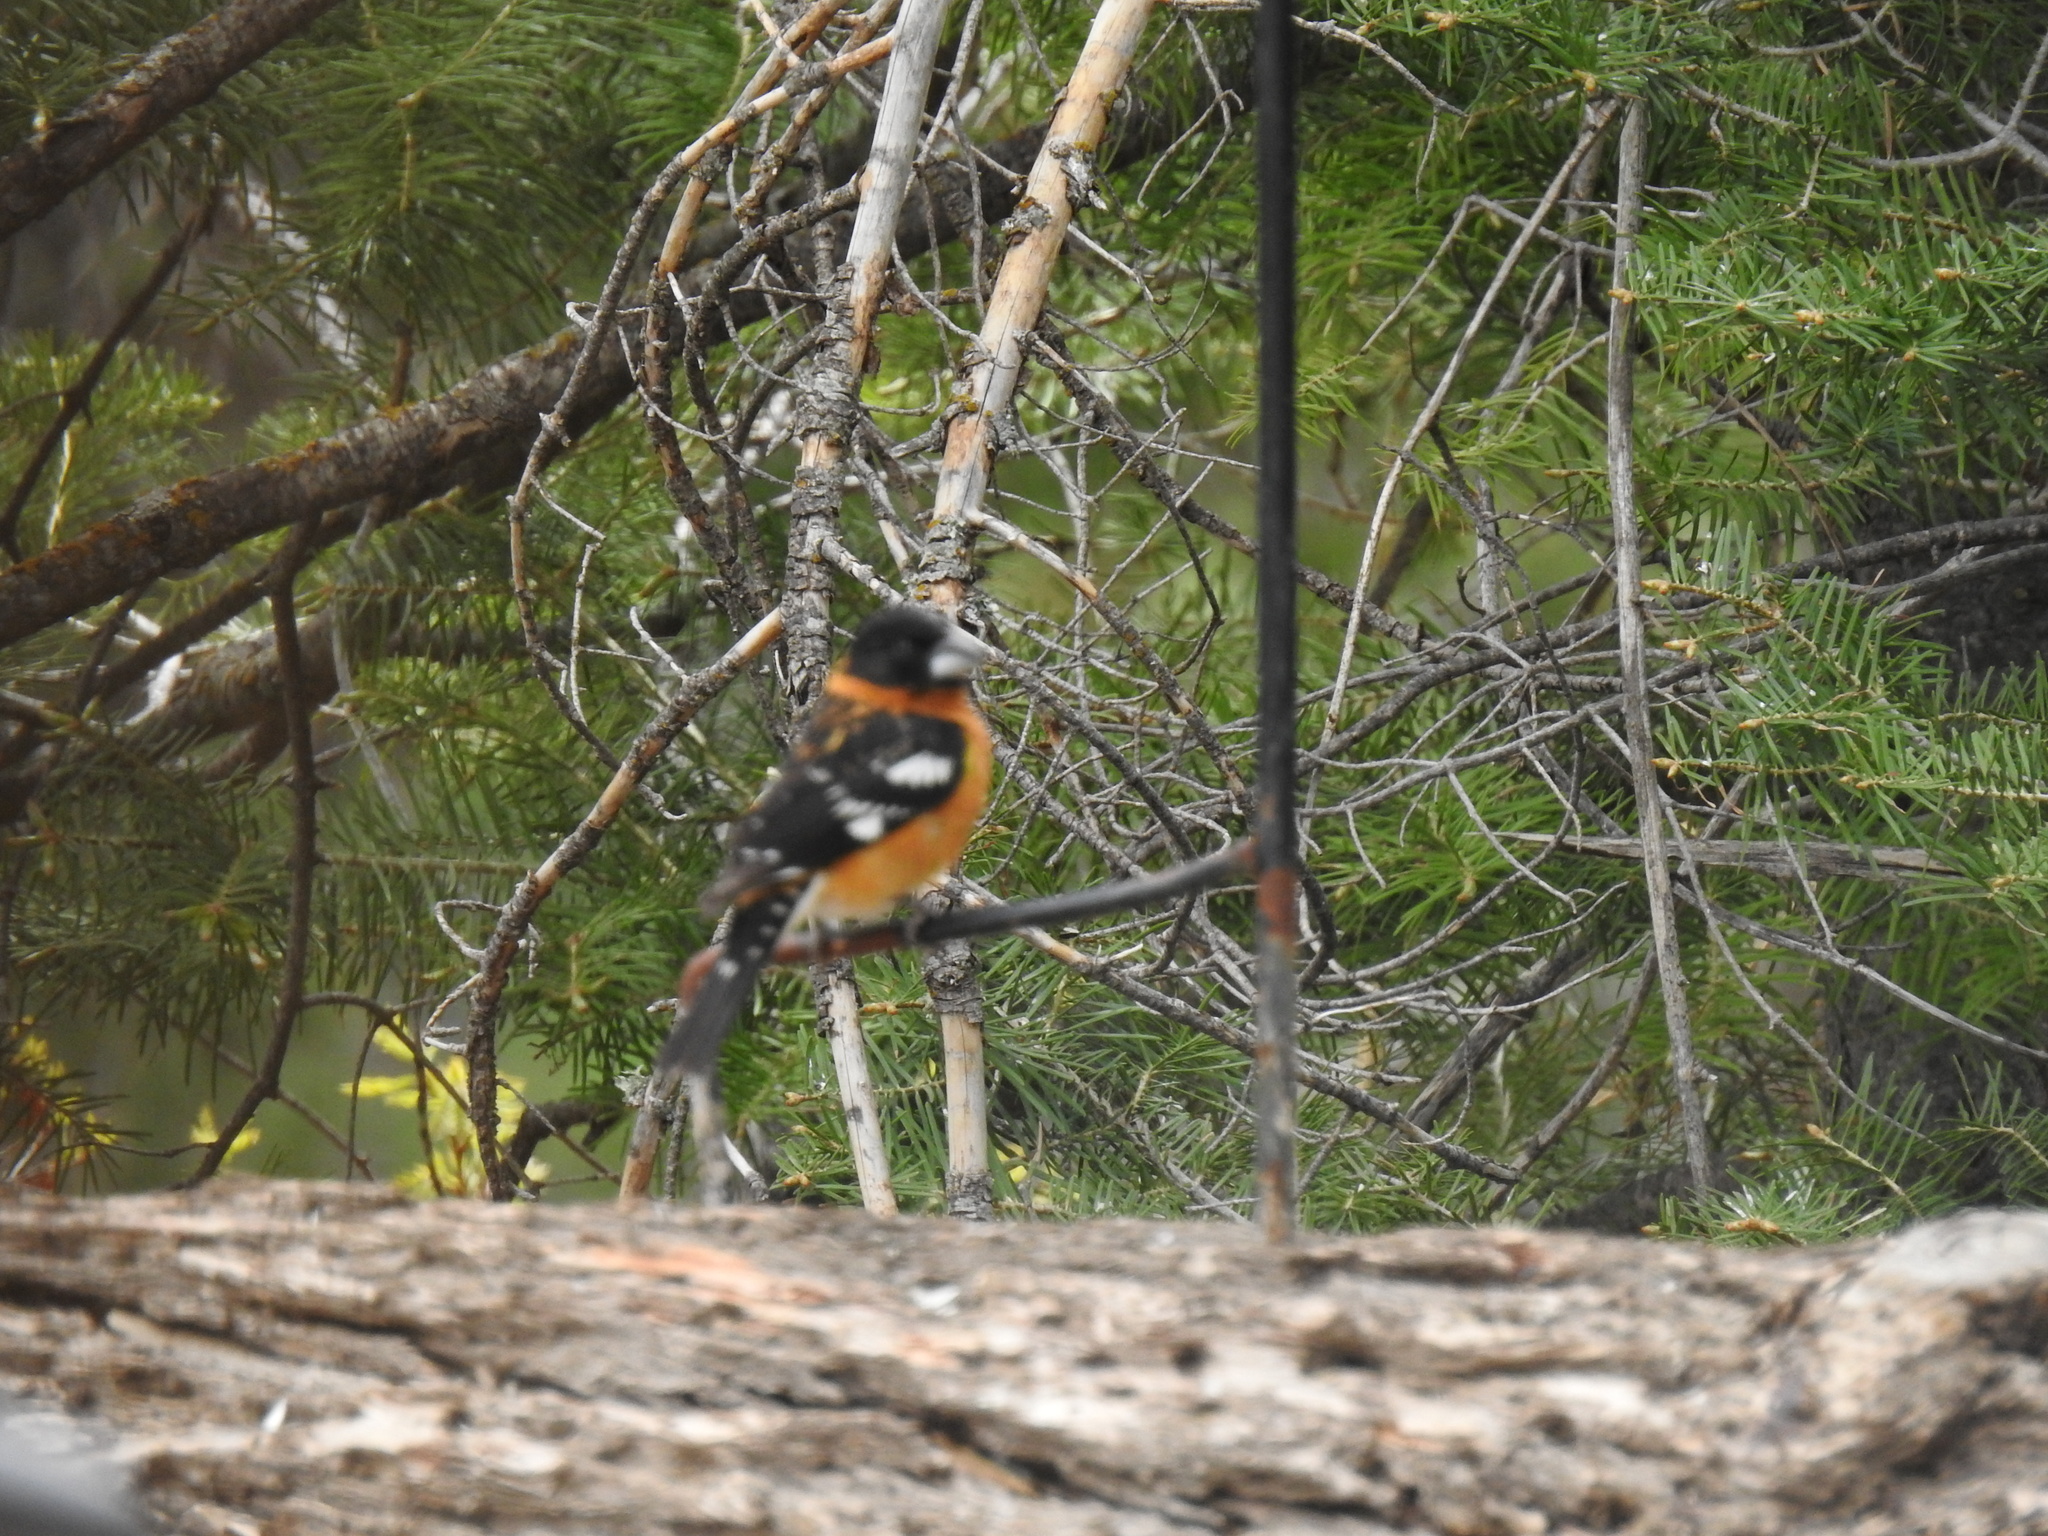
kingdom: Animalia
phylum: Chordata
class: Aves
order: Passeriformes
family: Cardinalidae
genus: Pheucticus
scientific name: Pheucticus melanocephalus
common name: Black-headed grosbeak
